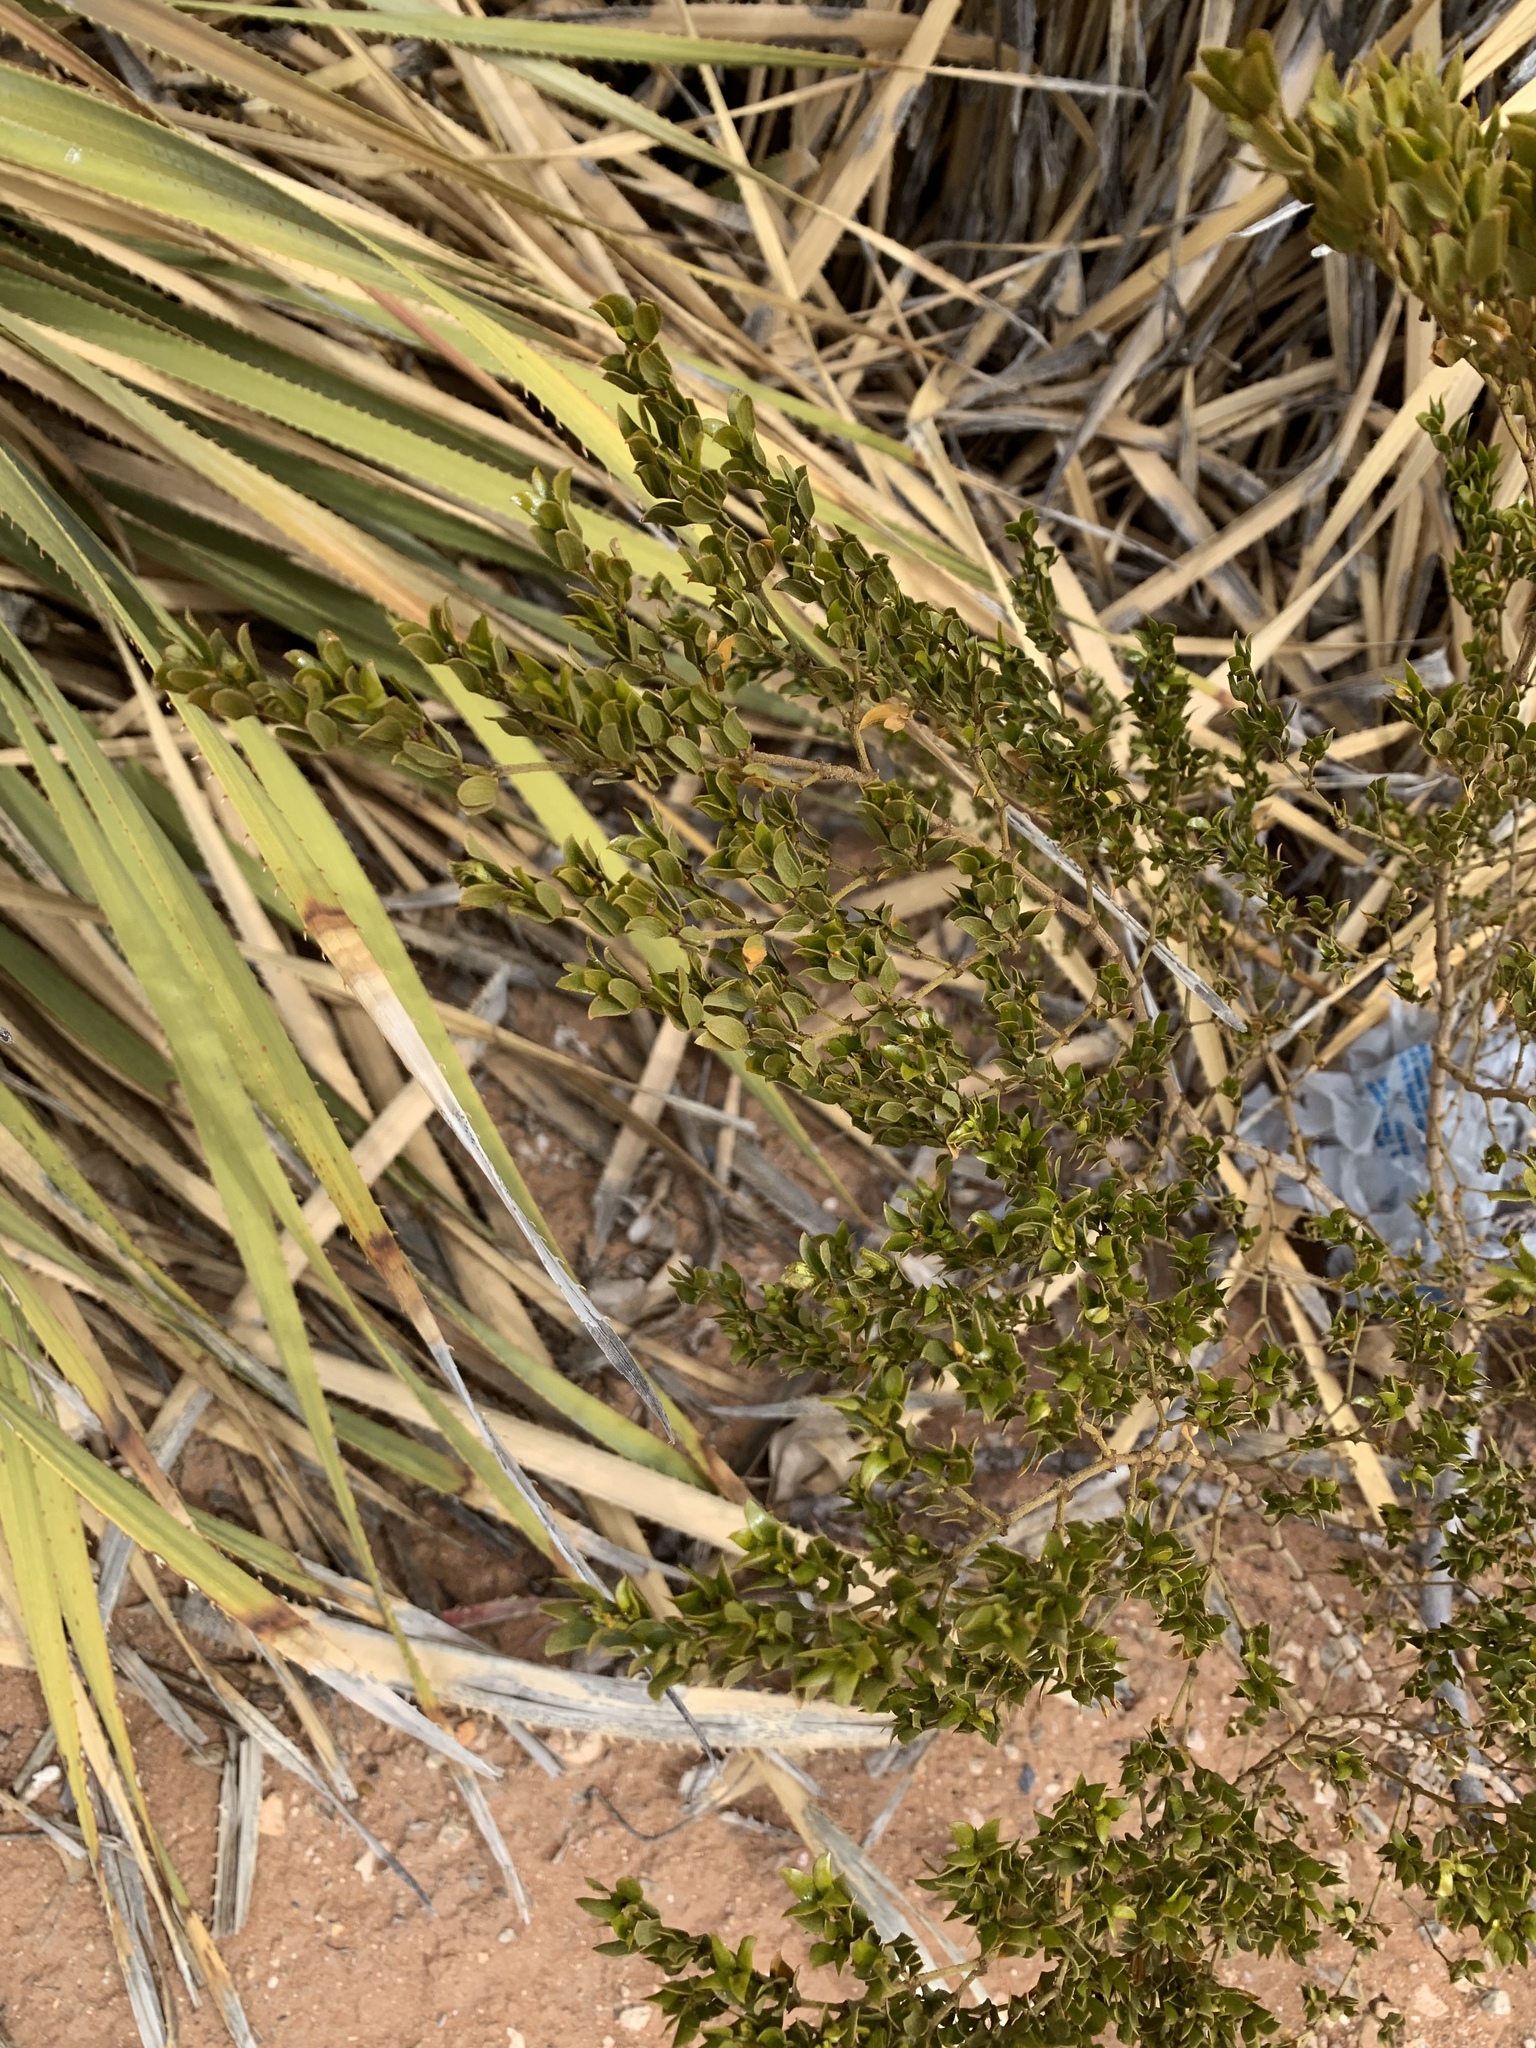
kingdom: Plantae
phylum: Tracheophyta
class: Magnoliopsida
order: Zygophyllales
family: Zygophyllaceae
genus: Larrea
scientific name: Larrea tridentata
